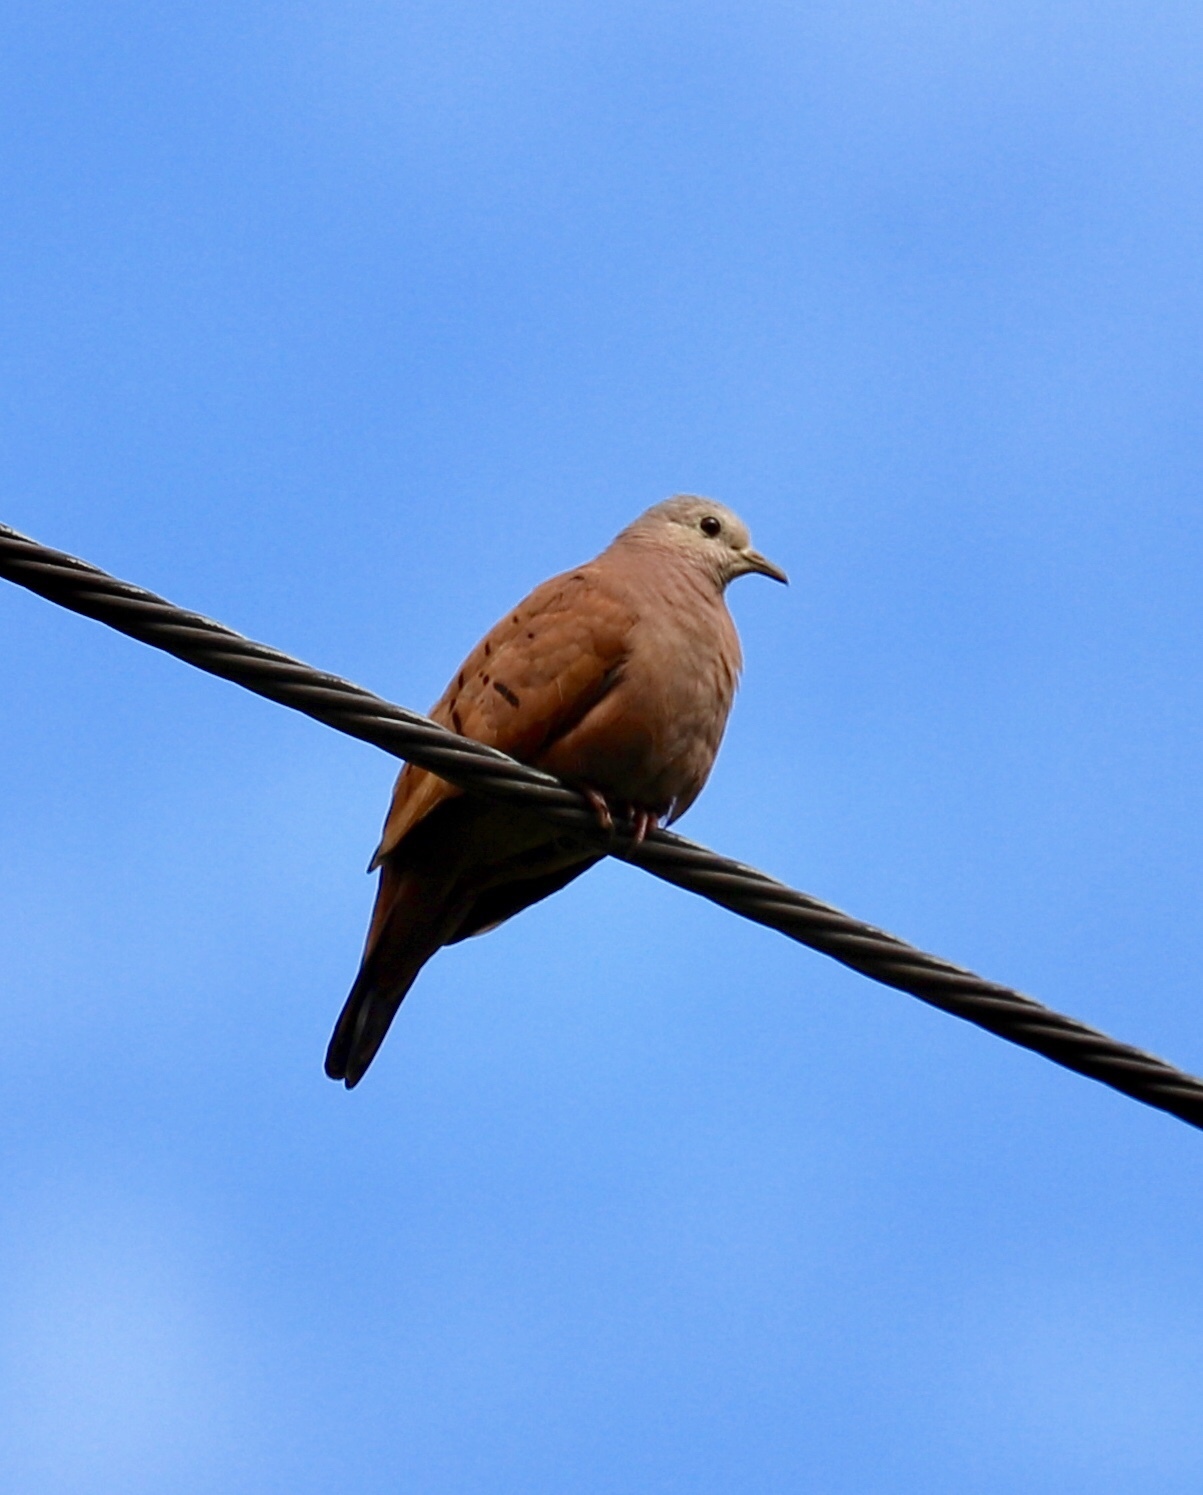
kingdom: Animalia
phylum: Chordata
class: Aves
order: Columbiformes
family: Columbidae
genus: Columbina
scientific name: Columbina talpacoti
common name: Ruddy ground dove
